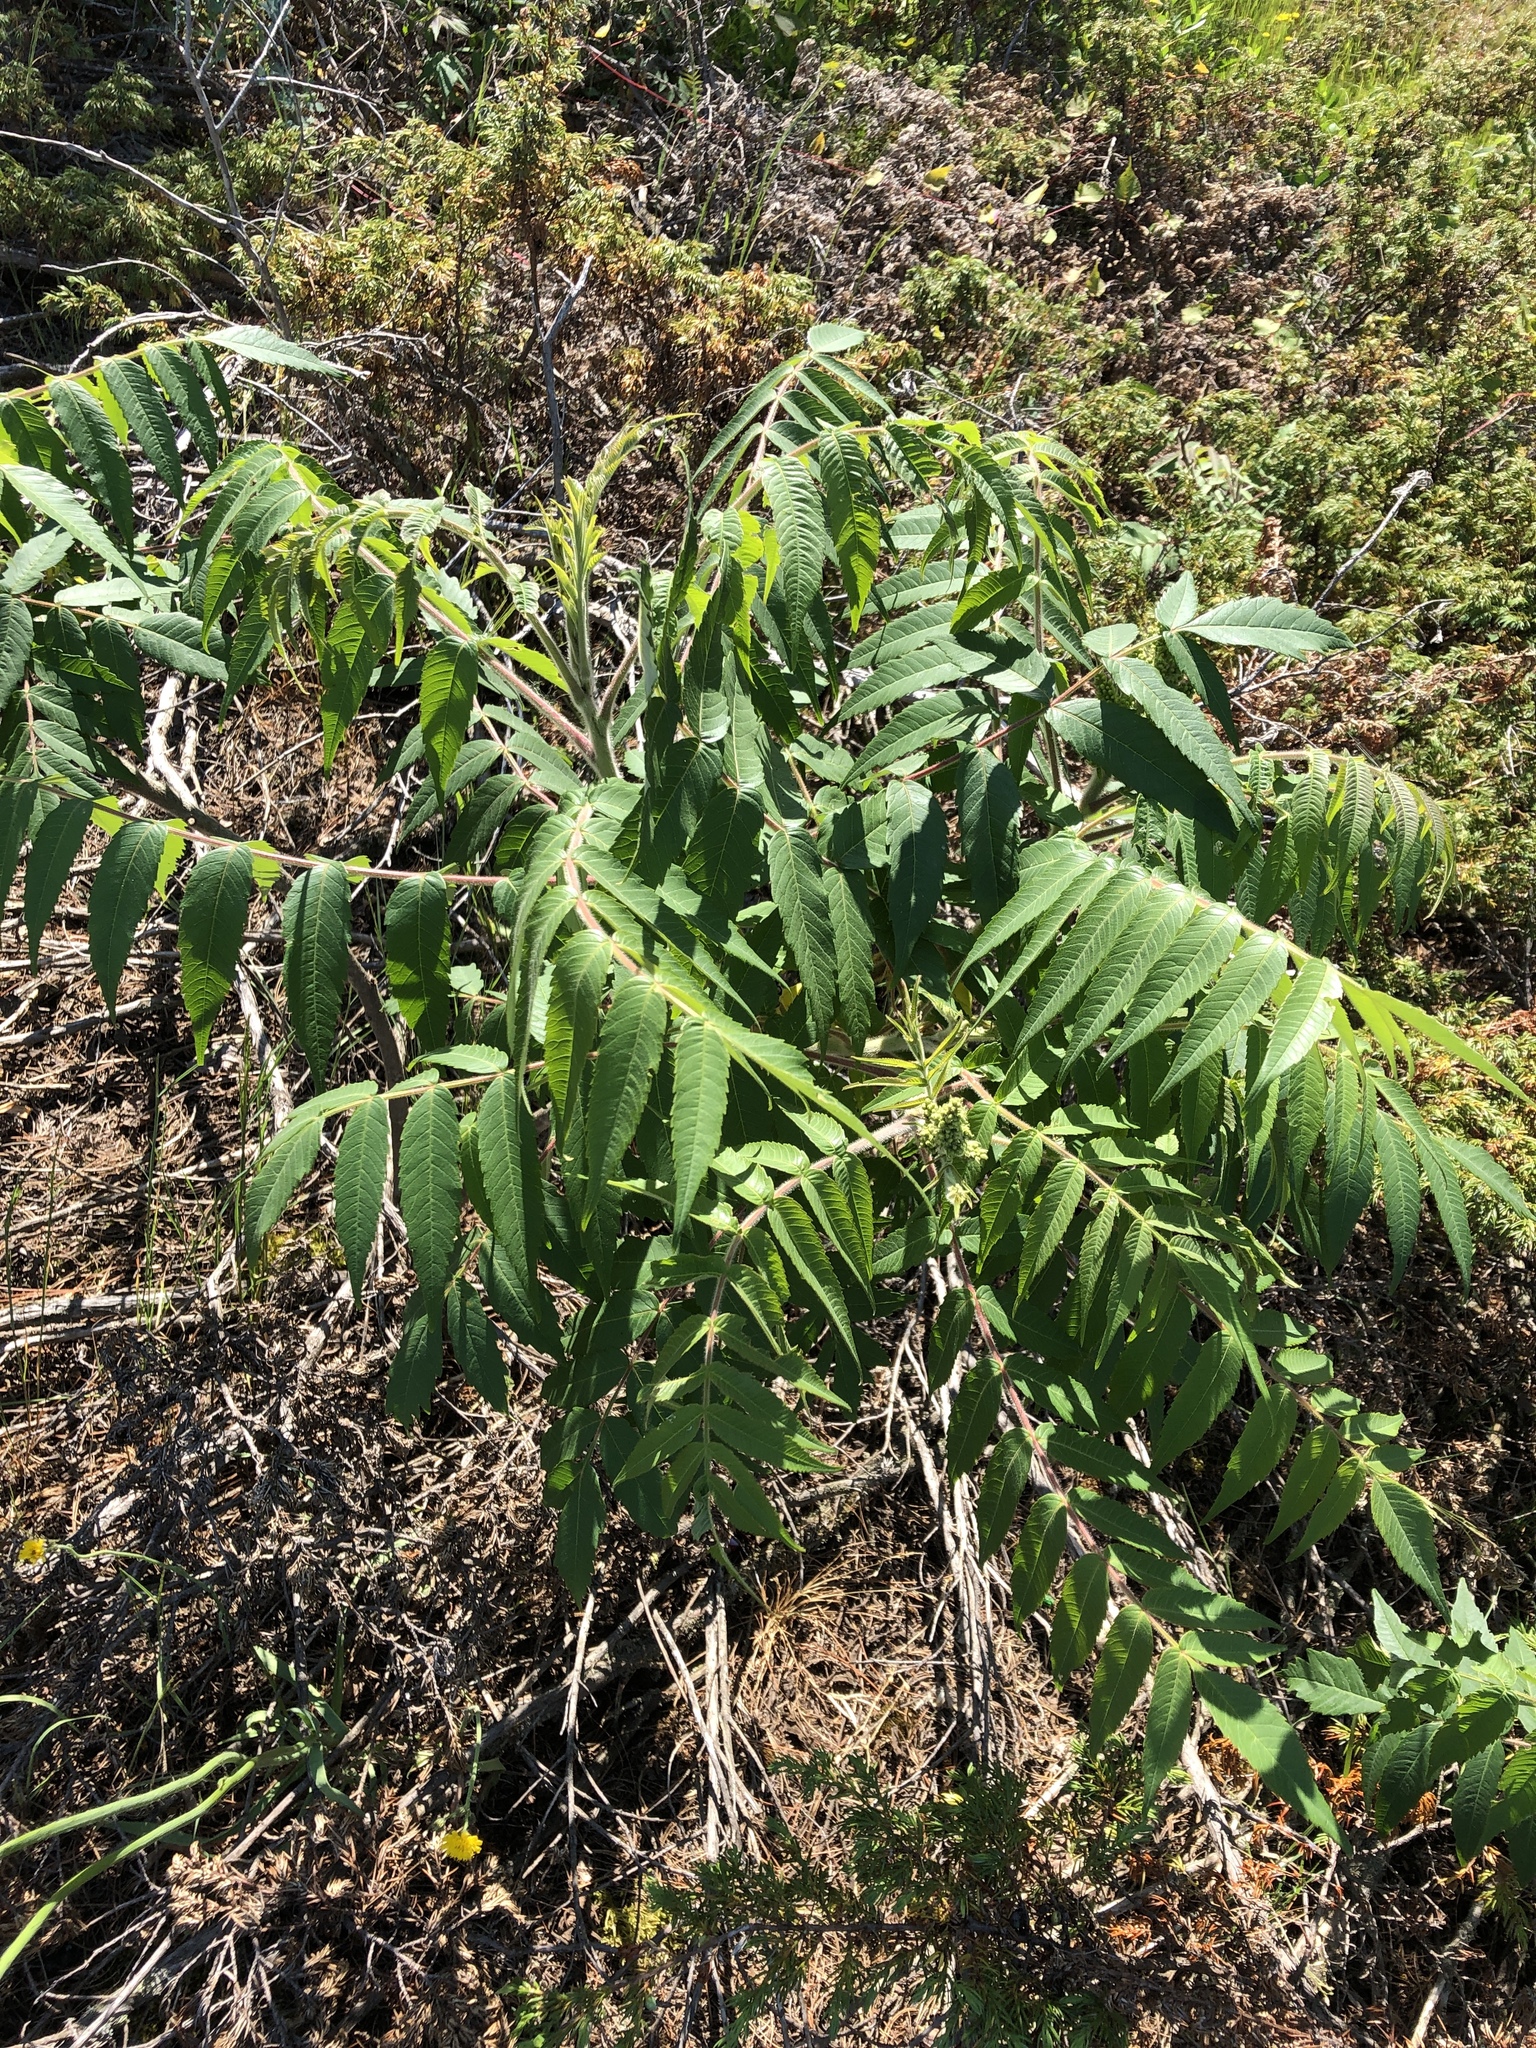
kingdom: Plantae
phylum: Tracheophyta
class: Magnoliopsida
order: Sapindales
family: Anacardiaceae
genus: Rhus
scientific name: Rhus typhina
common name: Staghorn sumac
